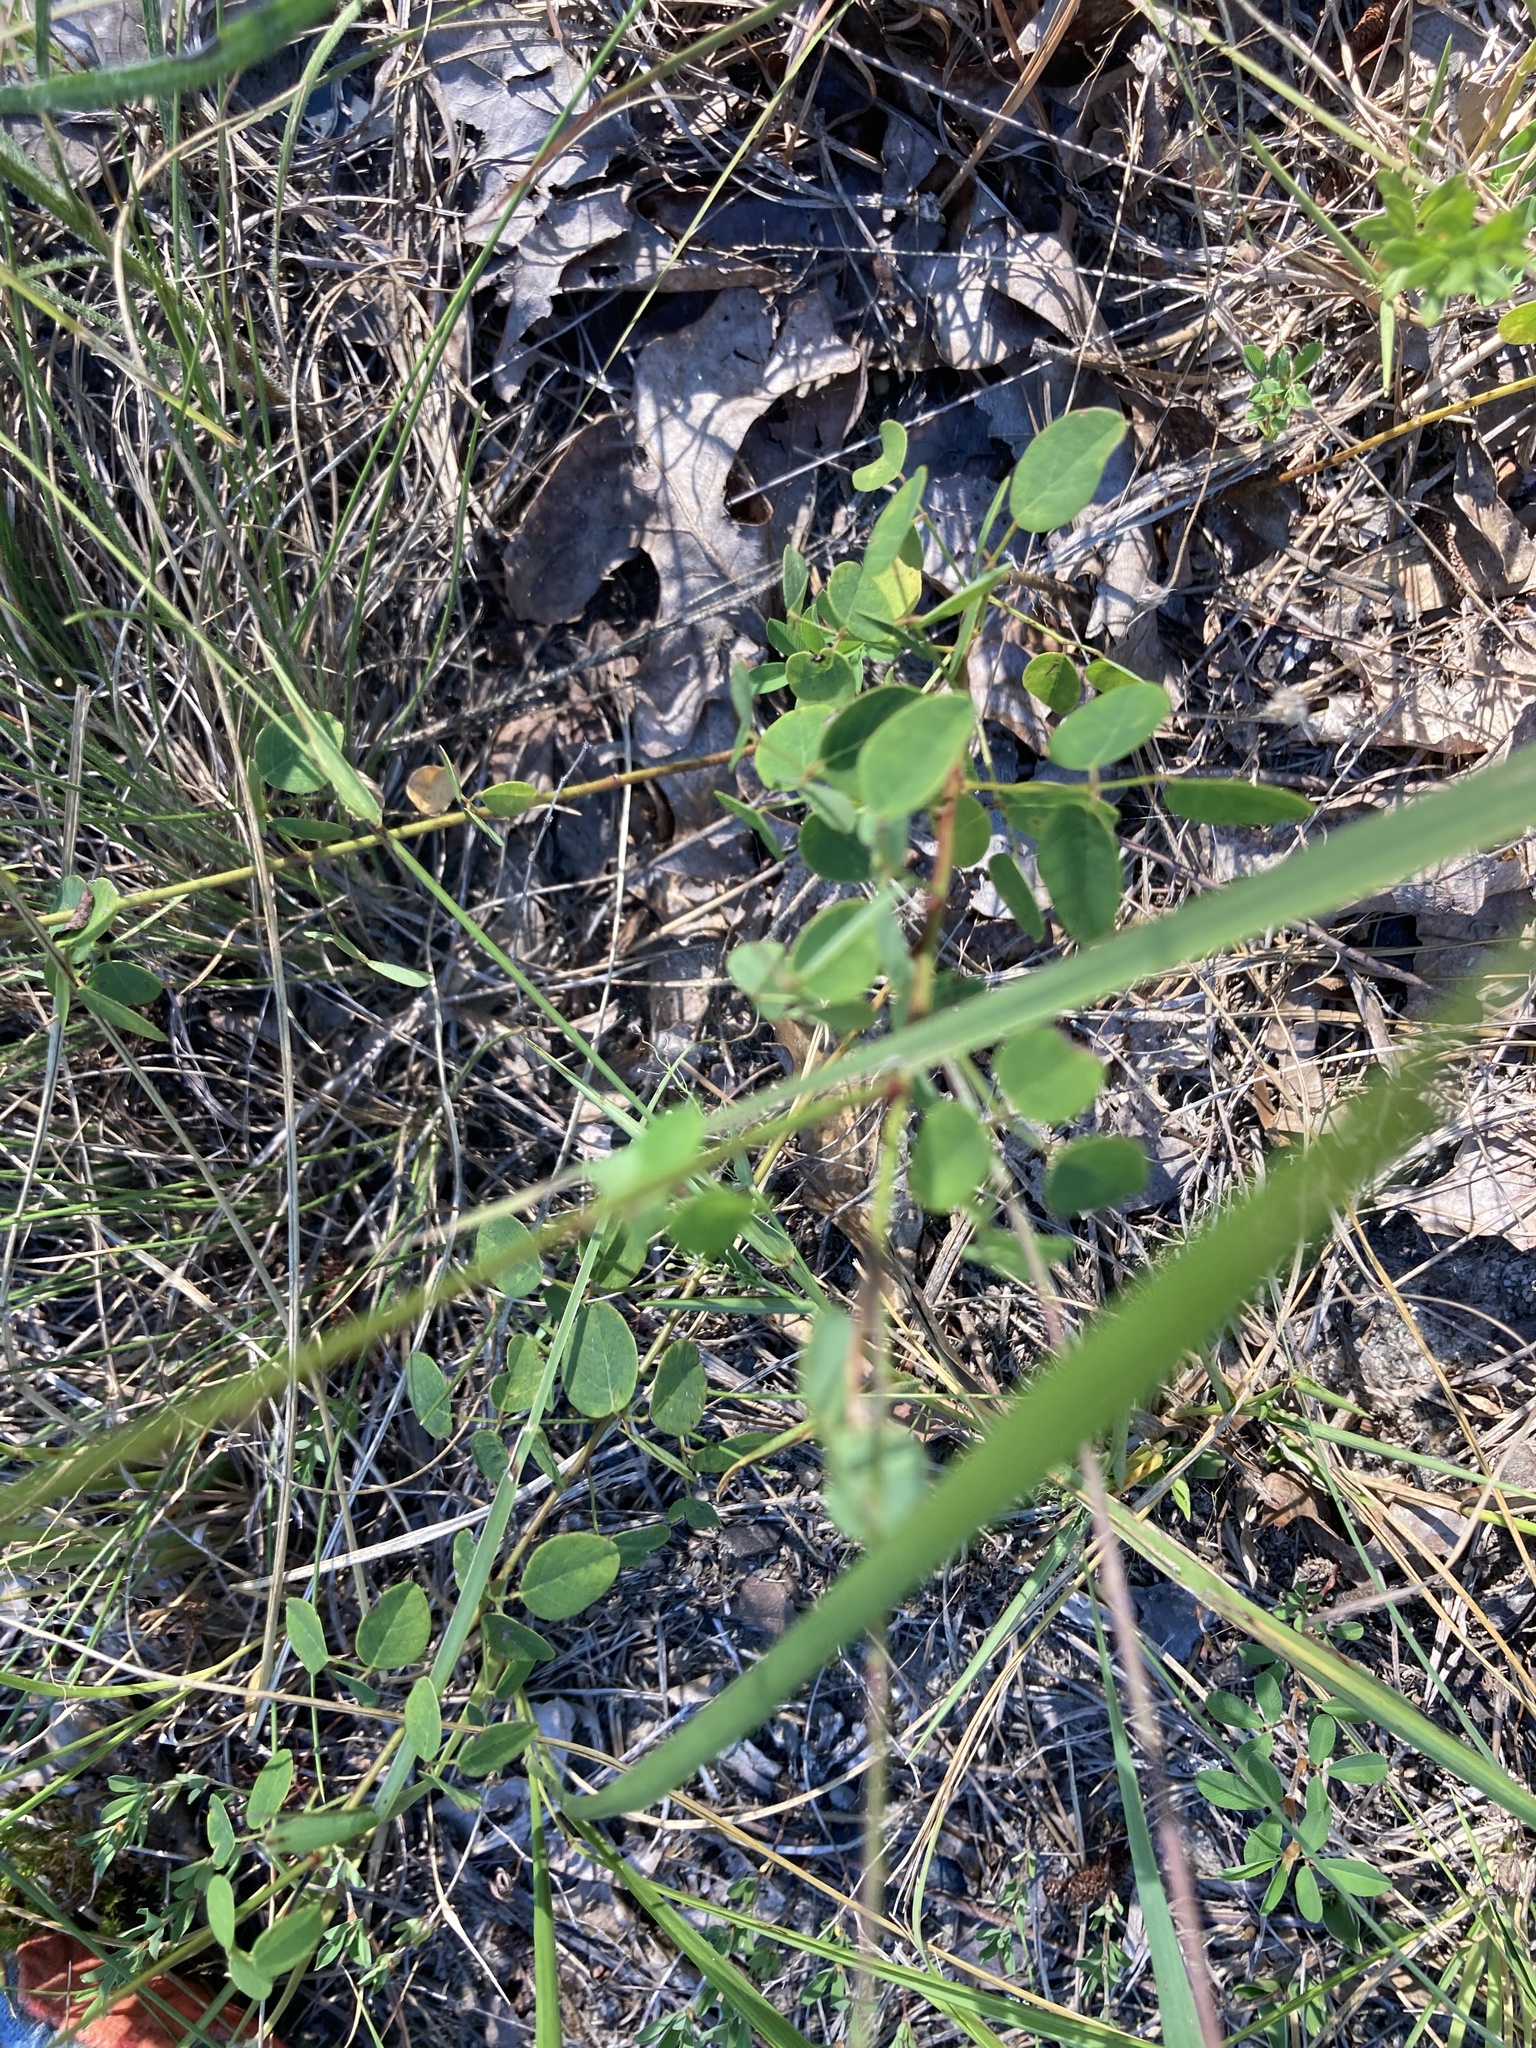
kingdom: Plantae
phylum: Tracheophyta
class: Magnoliopsida
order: Fabales
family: Fabaceae
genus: Desmodium
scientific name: Desmodium marilandicum
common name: Maryland tick-trefoil
